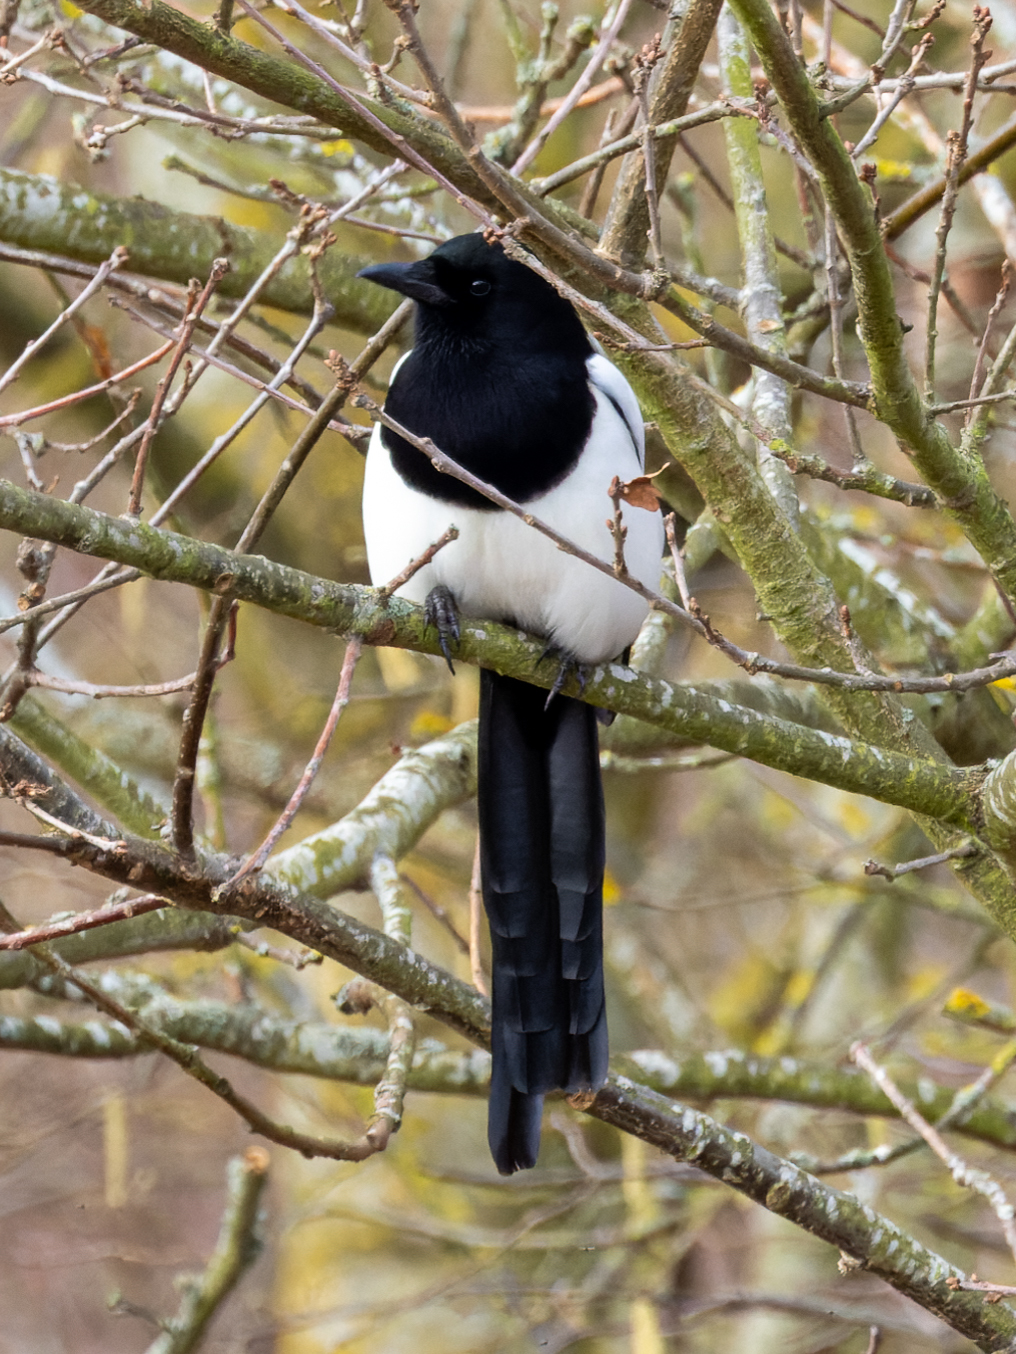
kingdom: Animalia
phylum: Chordata
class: Aves
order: Passeriformes
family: Corvidae
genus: Pica
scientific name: Pica pica
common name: Eurasian magpie
